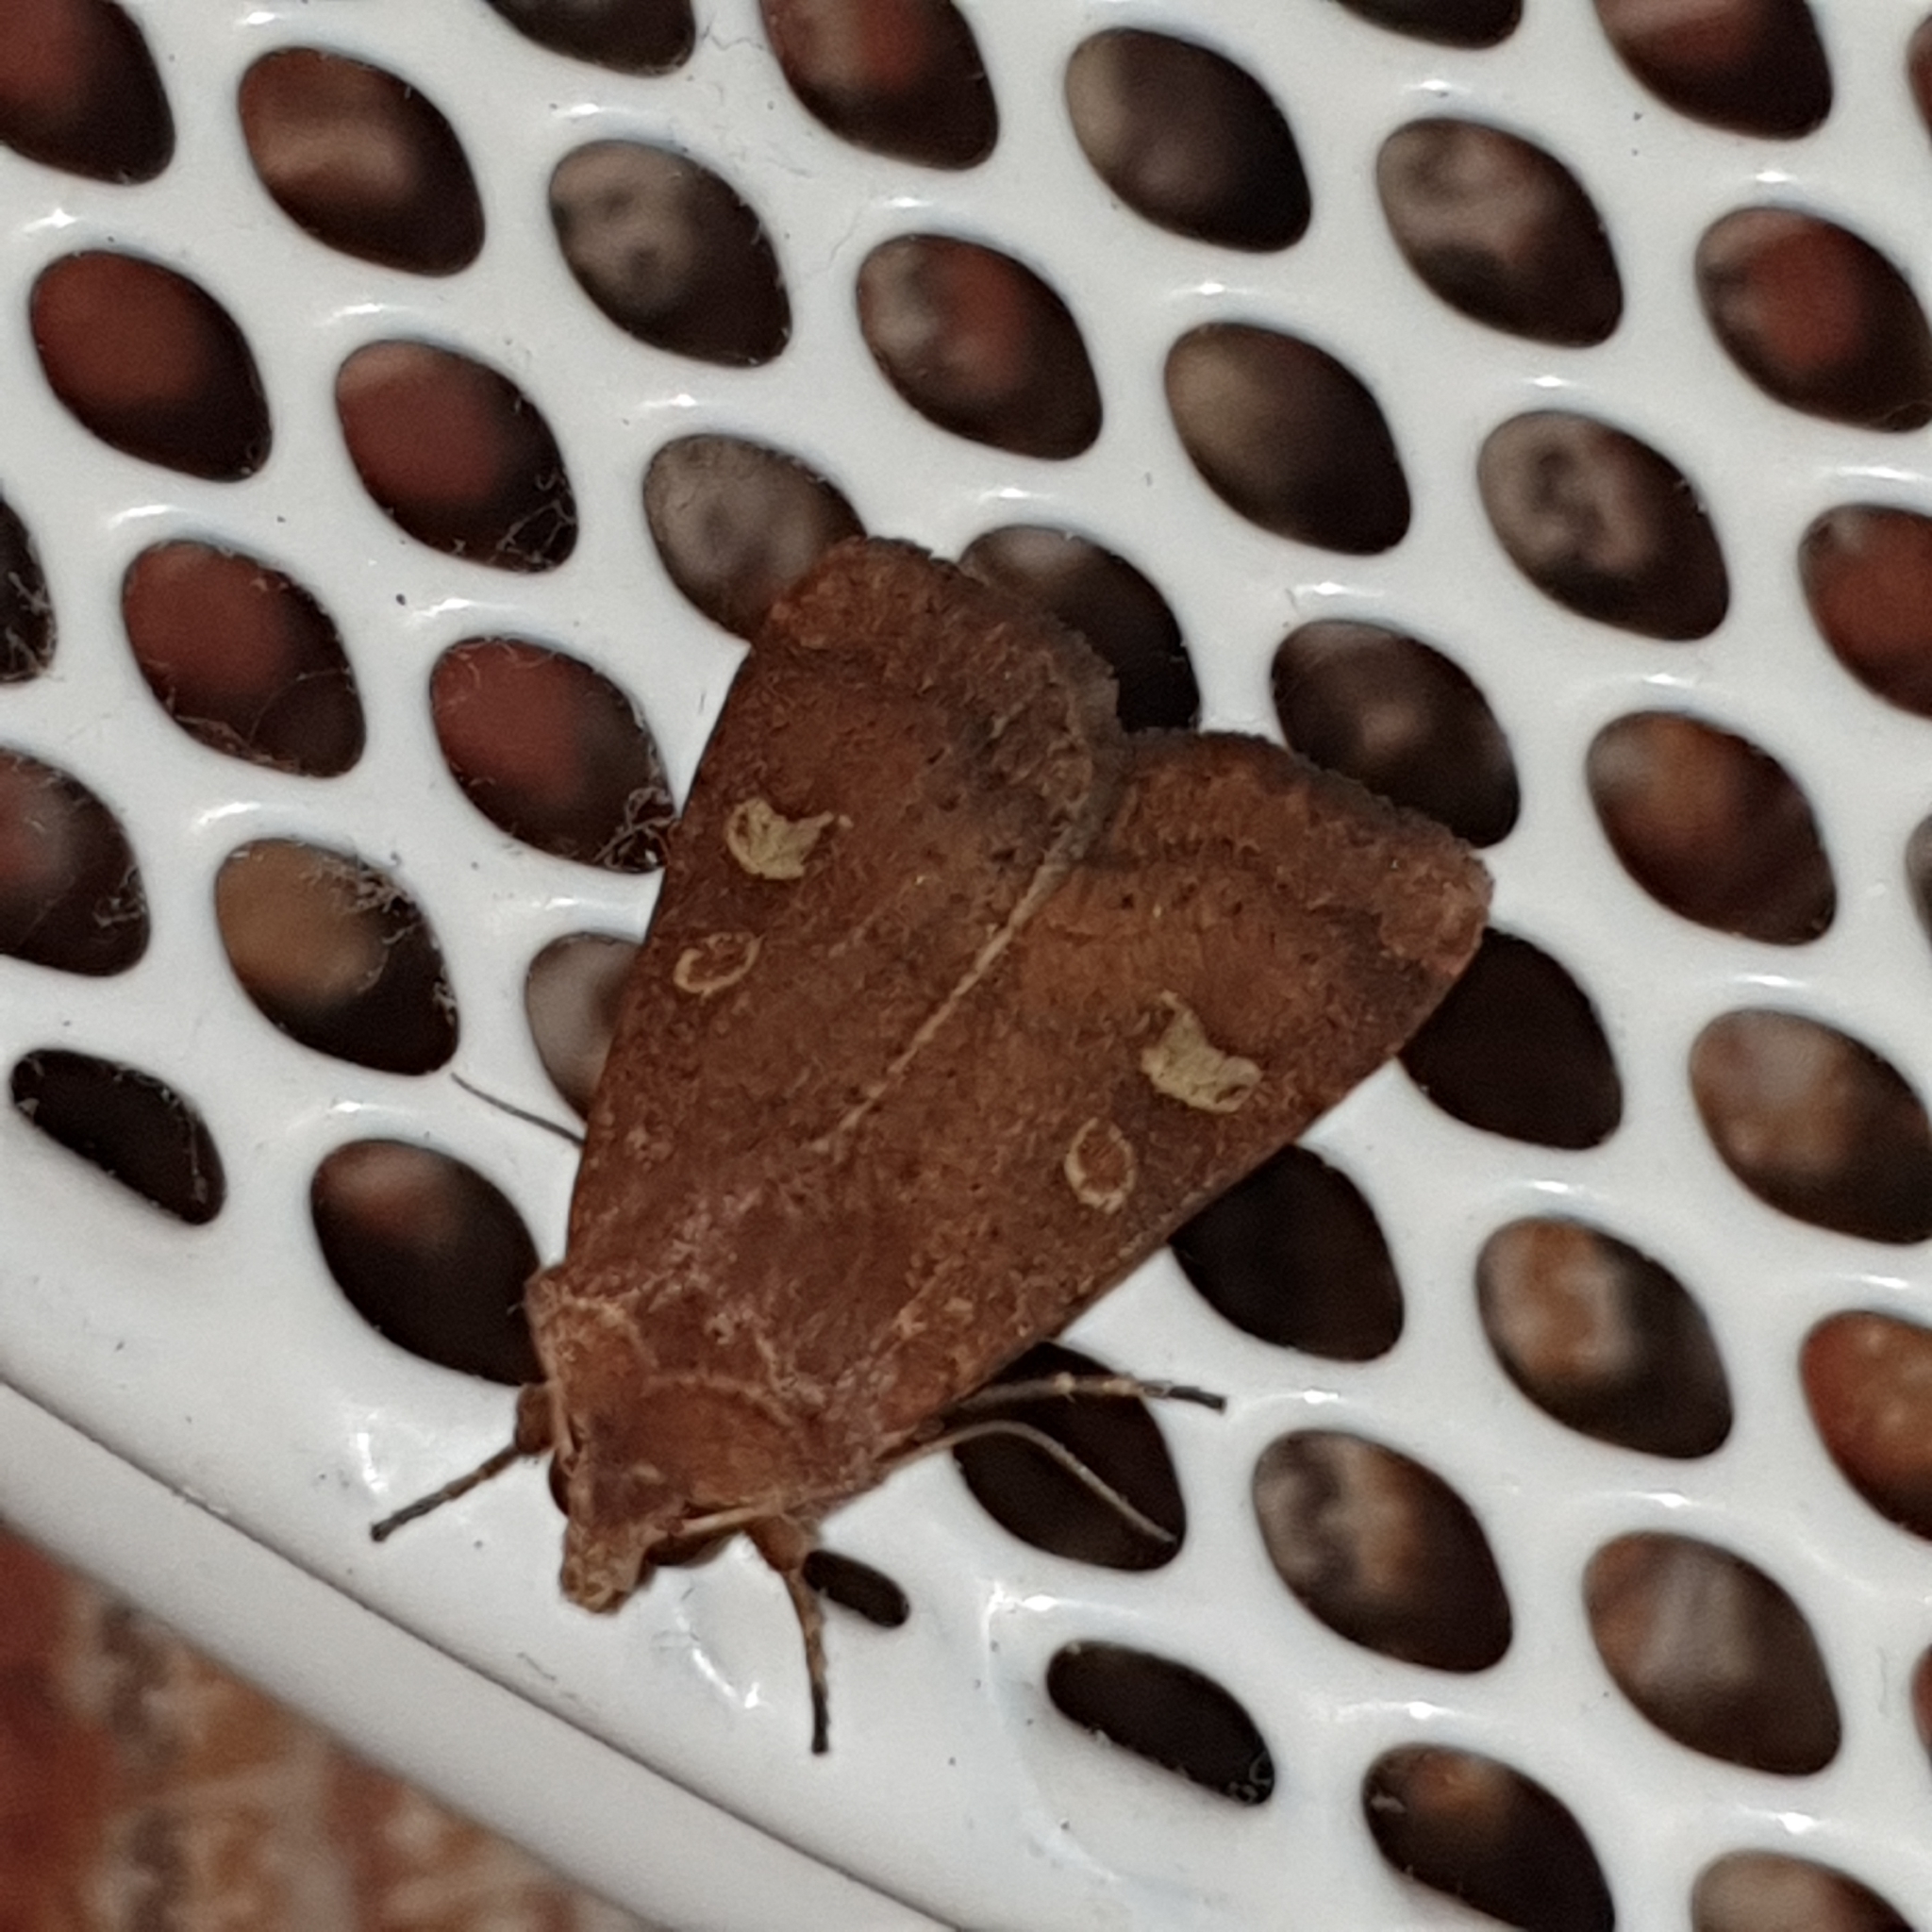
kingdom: Animalia
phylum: Arthropoda
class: Insecta
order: Lepidoptera
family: Noctuidae
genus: Xestia
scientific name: Xestia xanthographa
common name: Square-spot rustic
